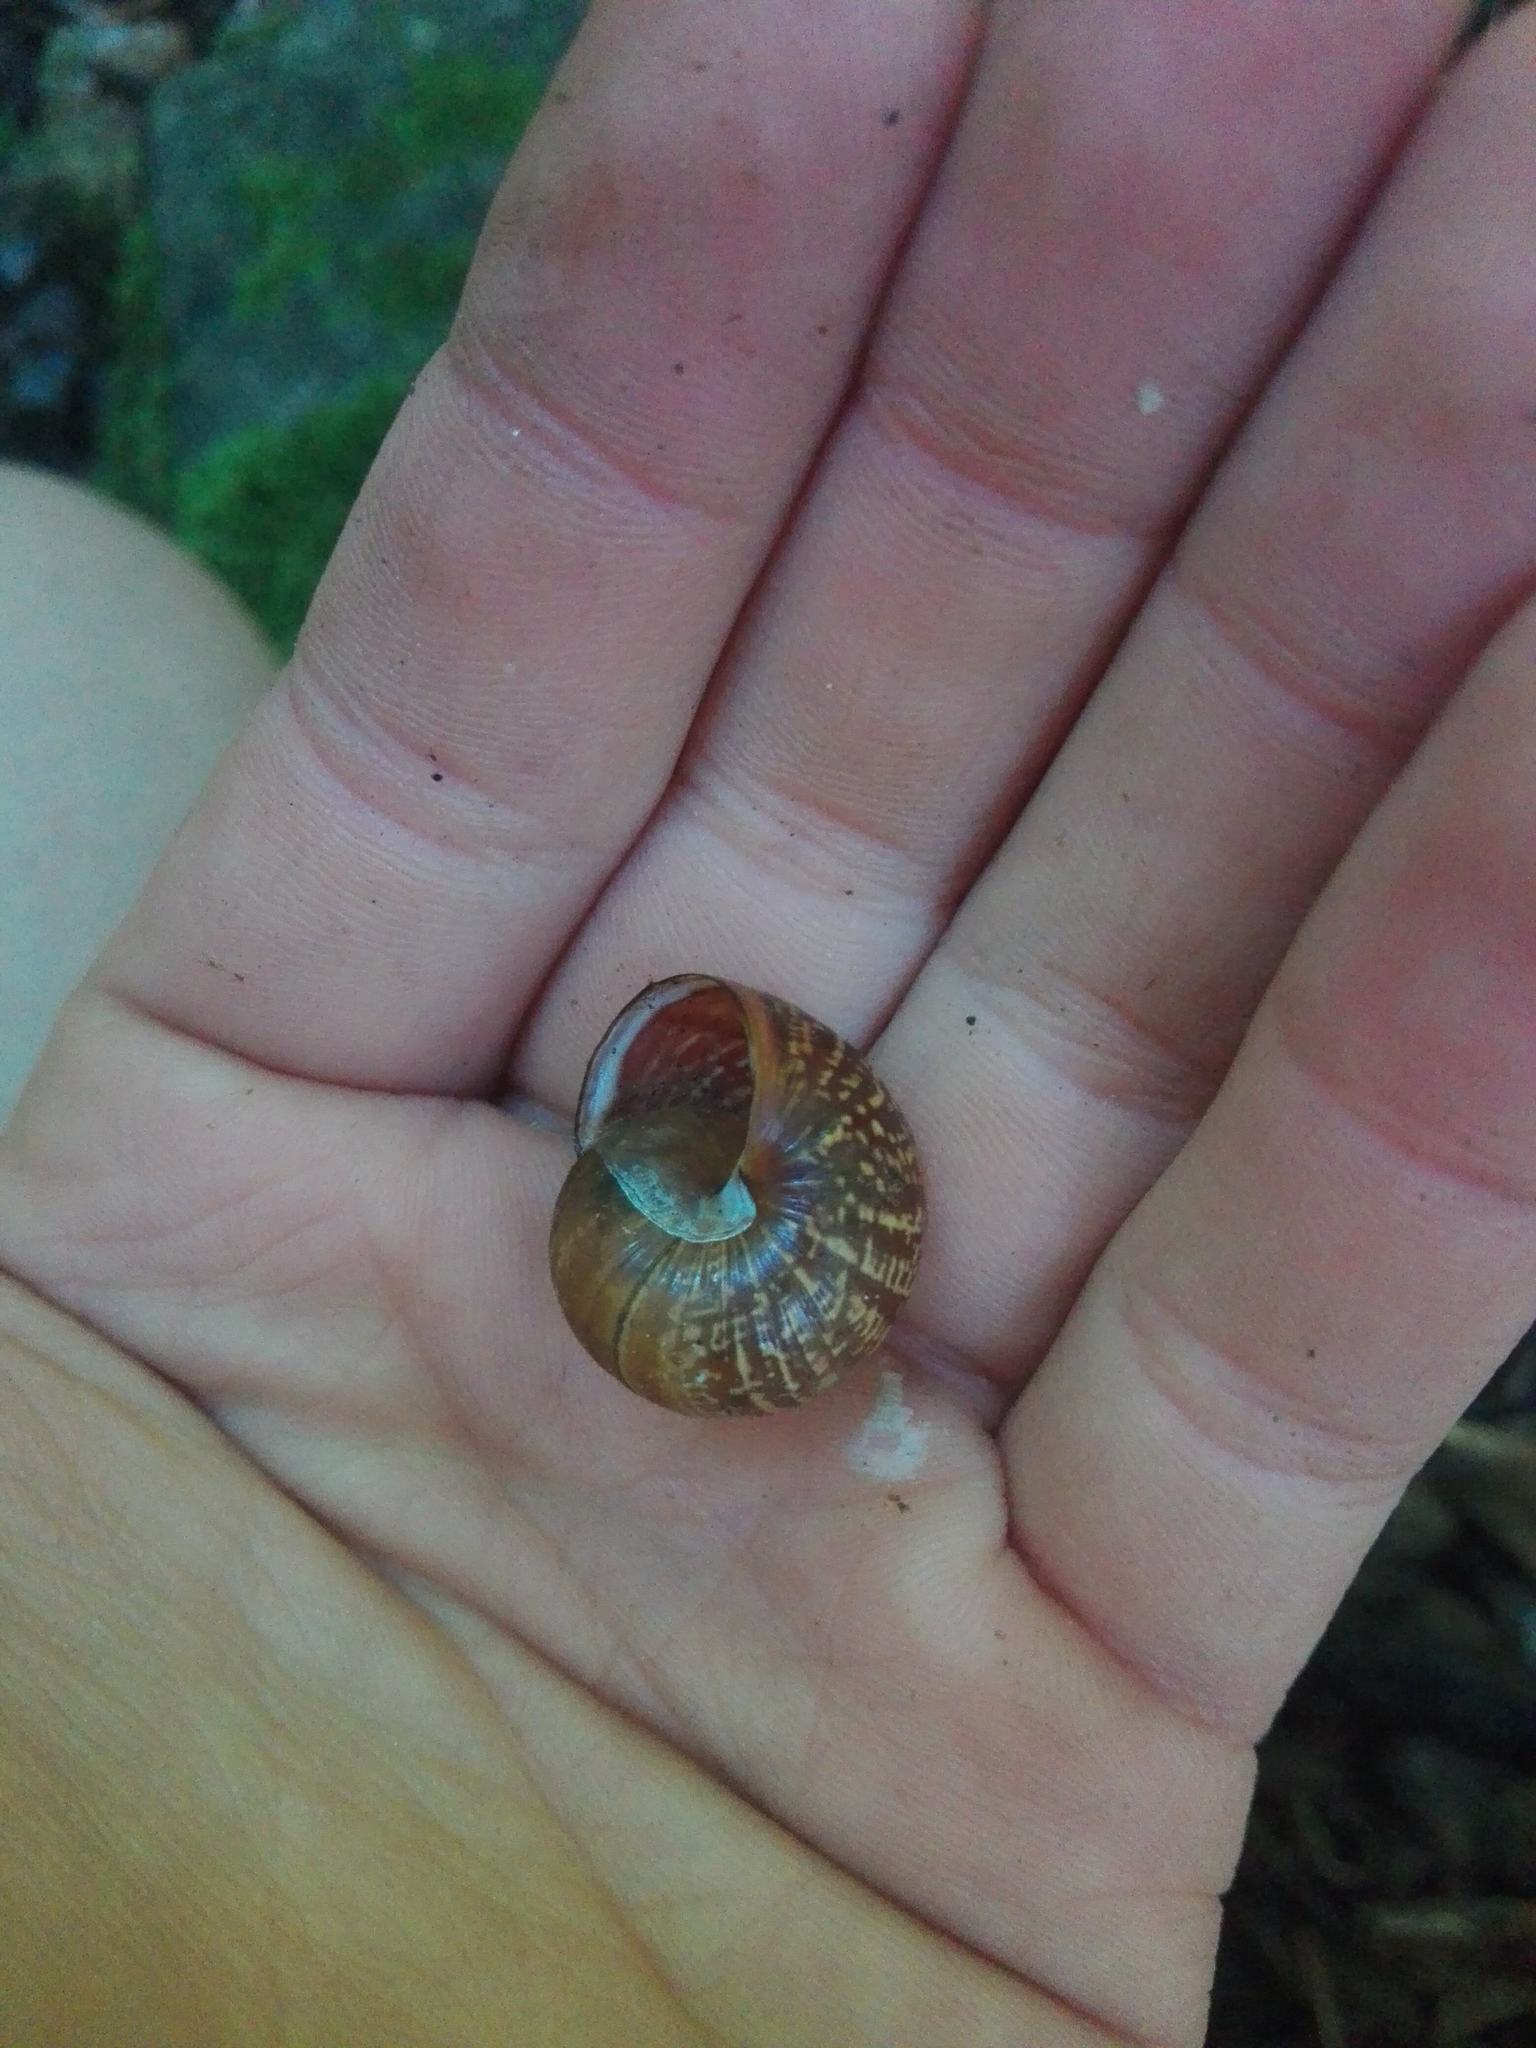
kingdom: Animalia
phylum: Mollusca
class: Gastropoda
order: Stylommatophora
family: Helicidae
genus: Arianta
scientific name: Arianta arbustorum
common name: Copse snail
